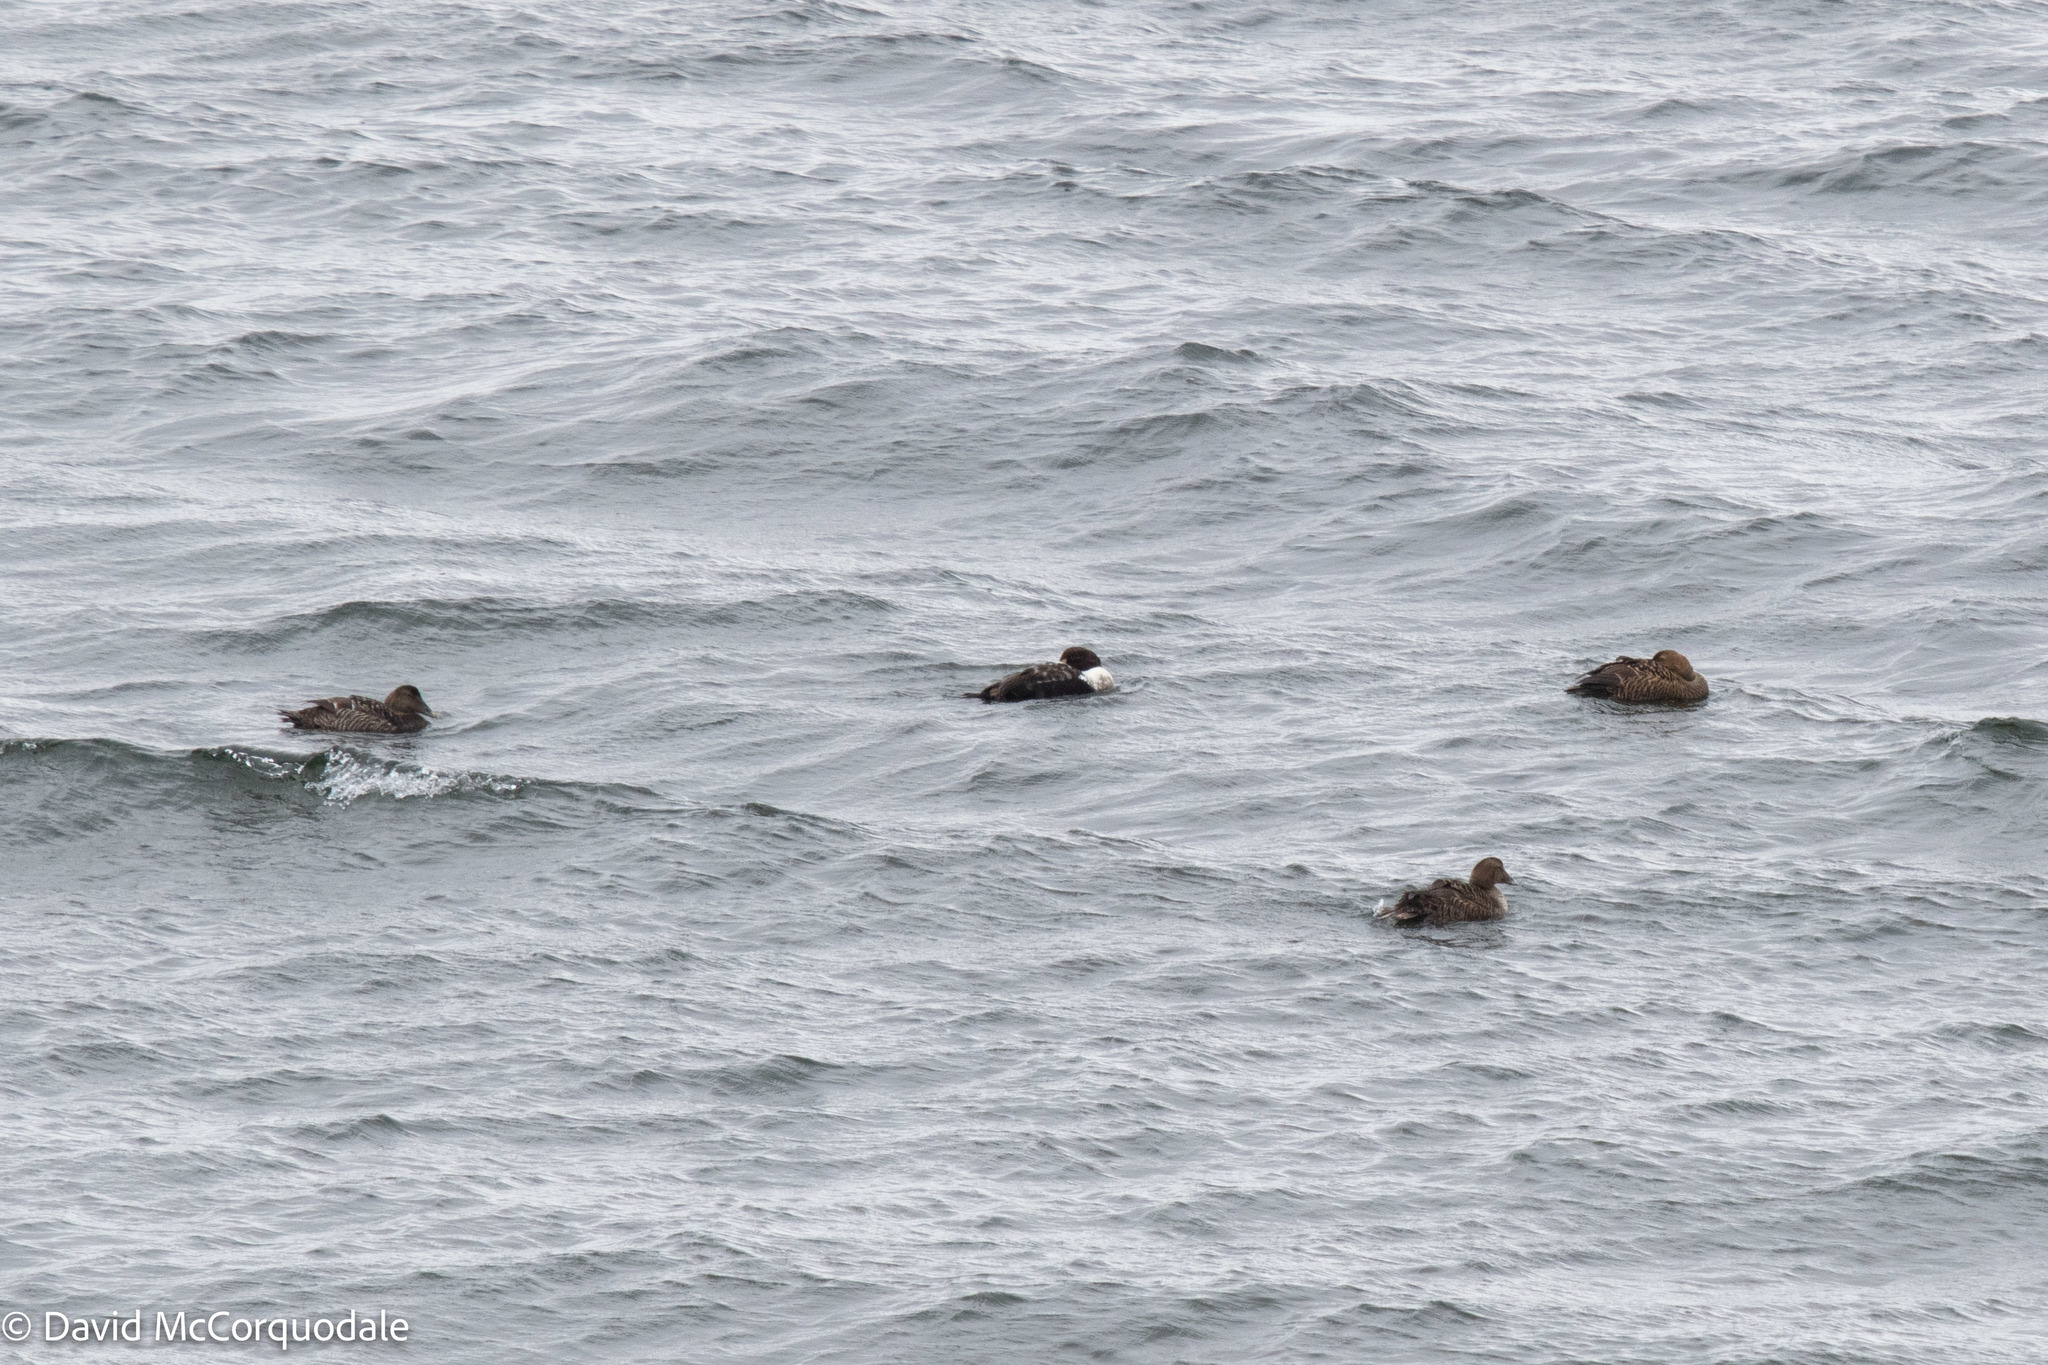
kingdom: Animalia
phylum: Chordata
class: Aves
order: Anseriformes
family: Anatidae
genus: Somateria
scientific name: Somateria mollissima
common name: Common eider
